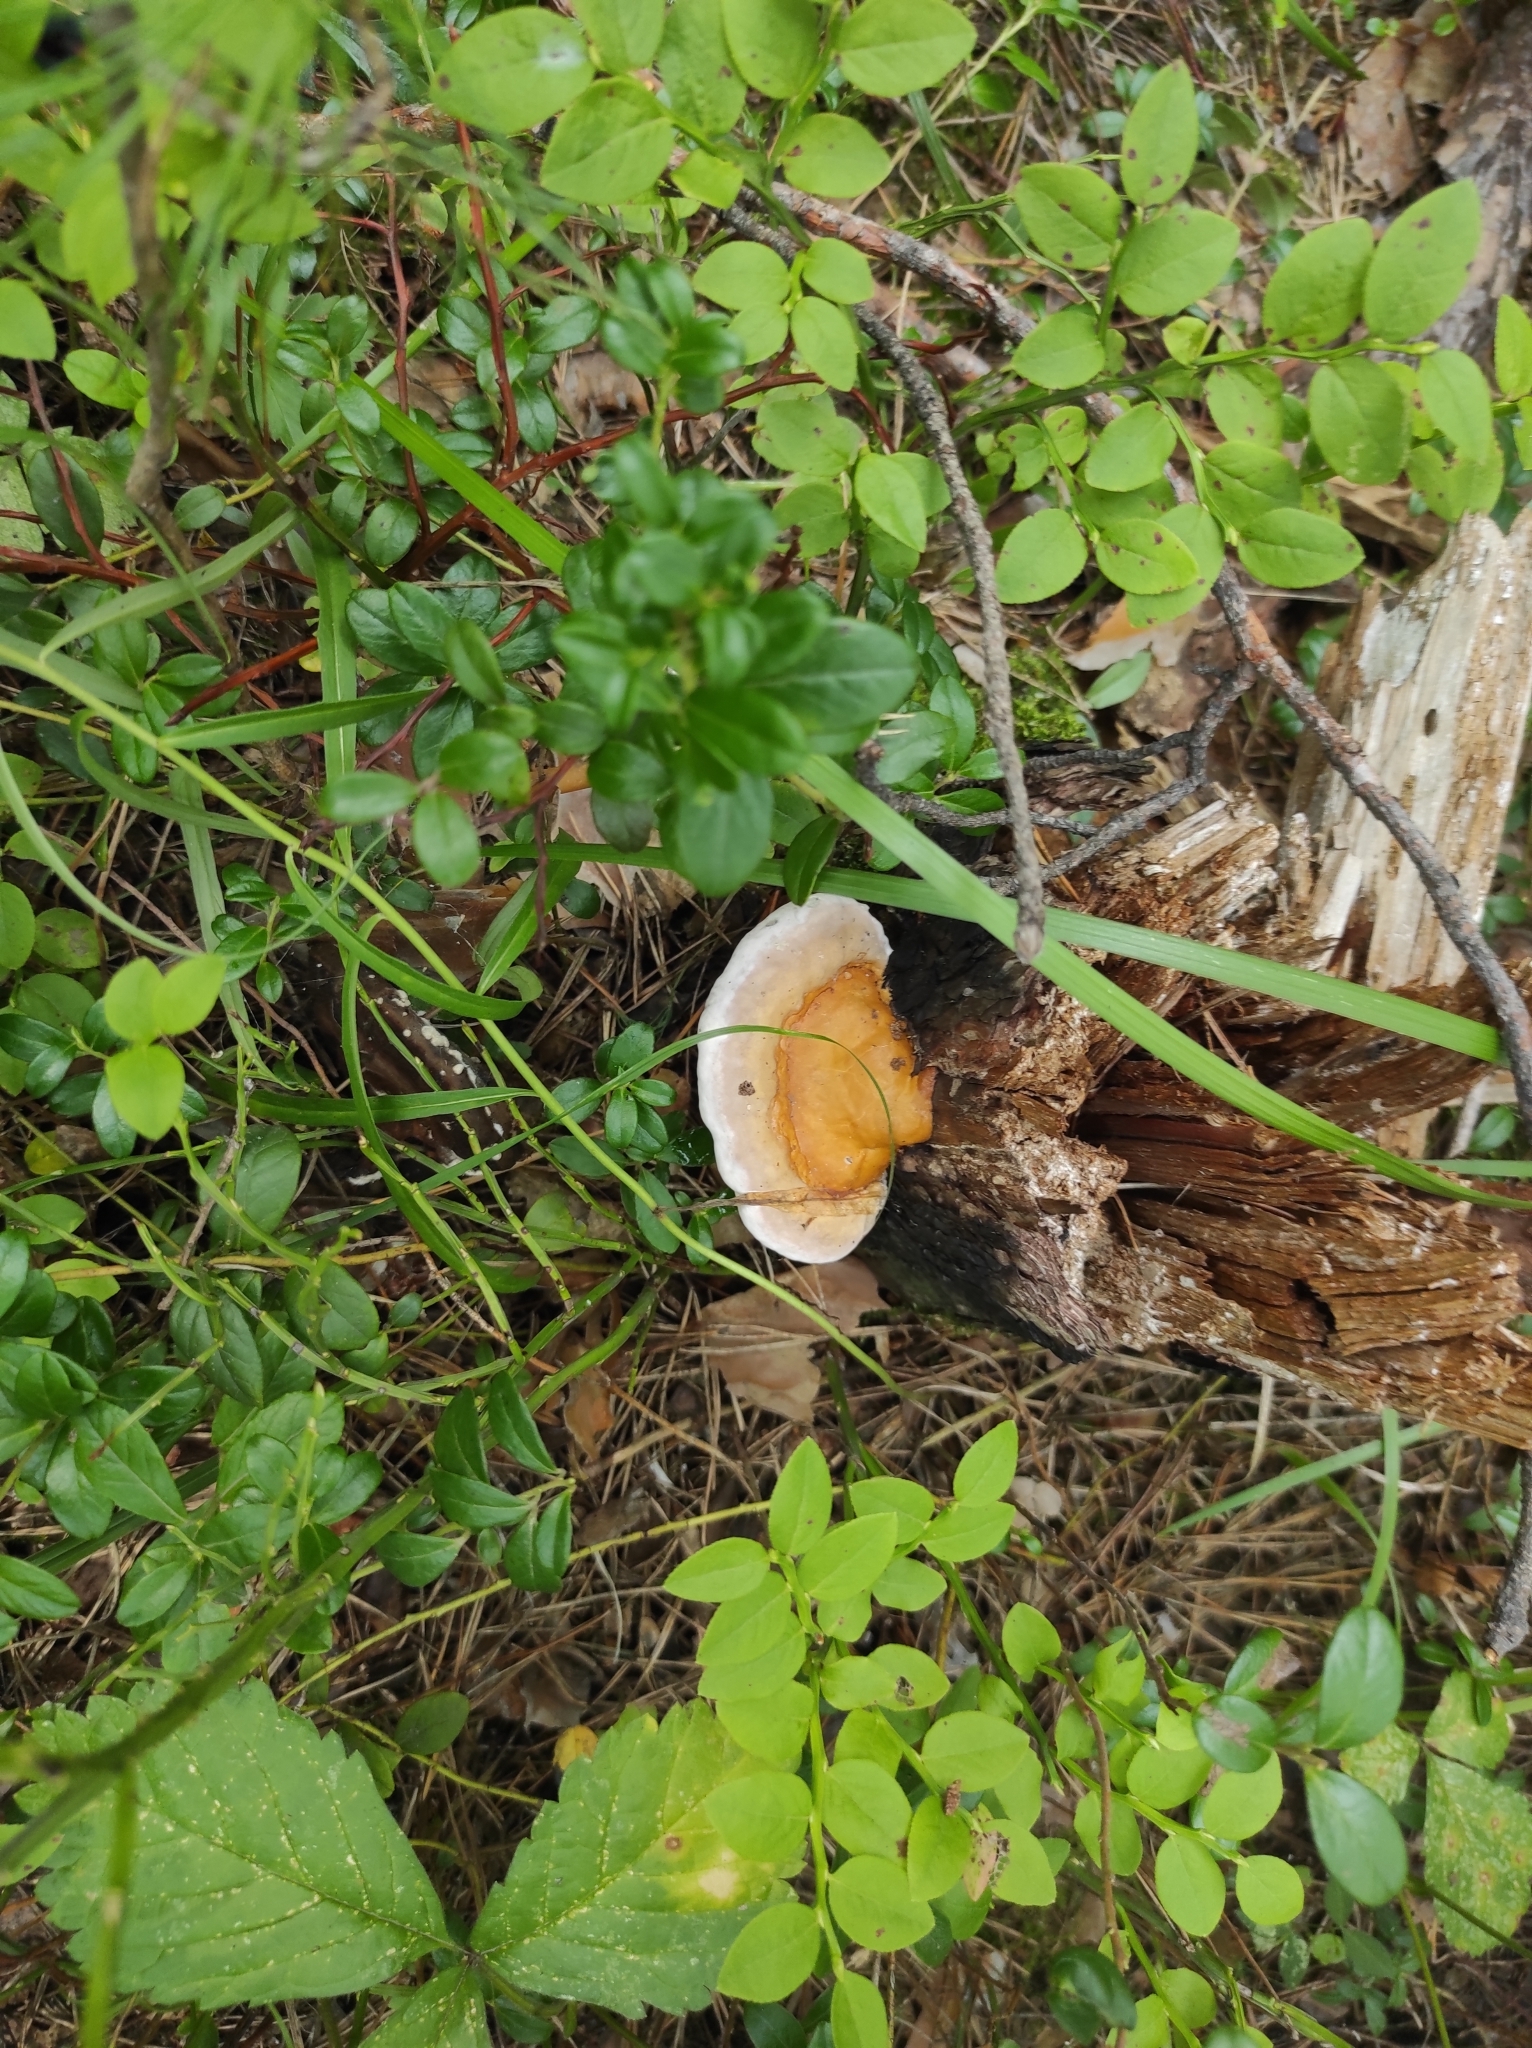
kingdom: Fungi
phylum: Basidiomycota
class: Agaricomycetes
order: Polyporales
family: Fomitopsidaceae
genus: Fomitopsis
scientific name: Fomitopsis pinicola
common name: Red-belted bracket
